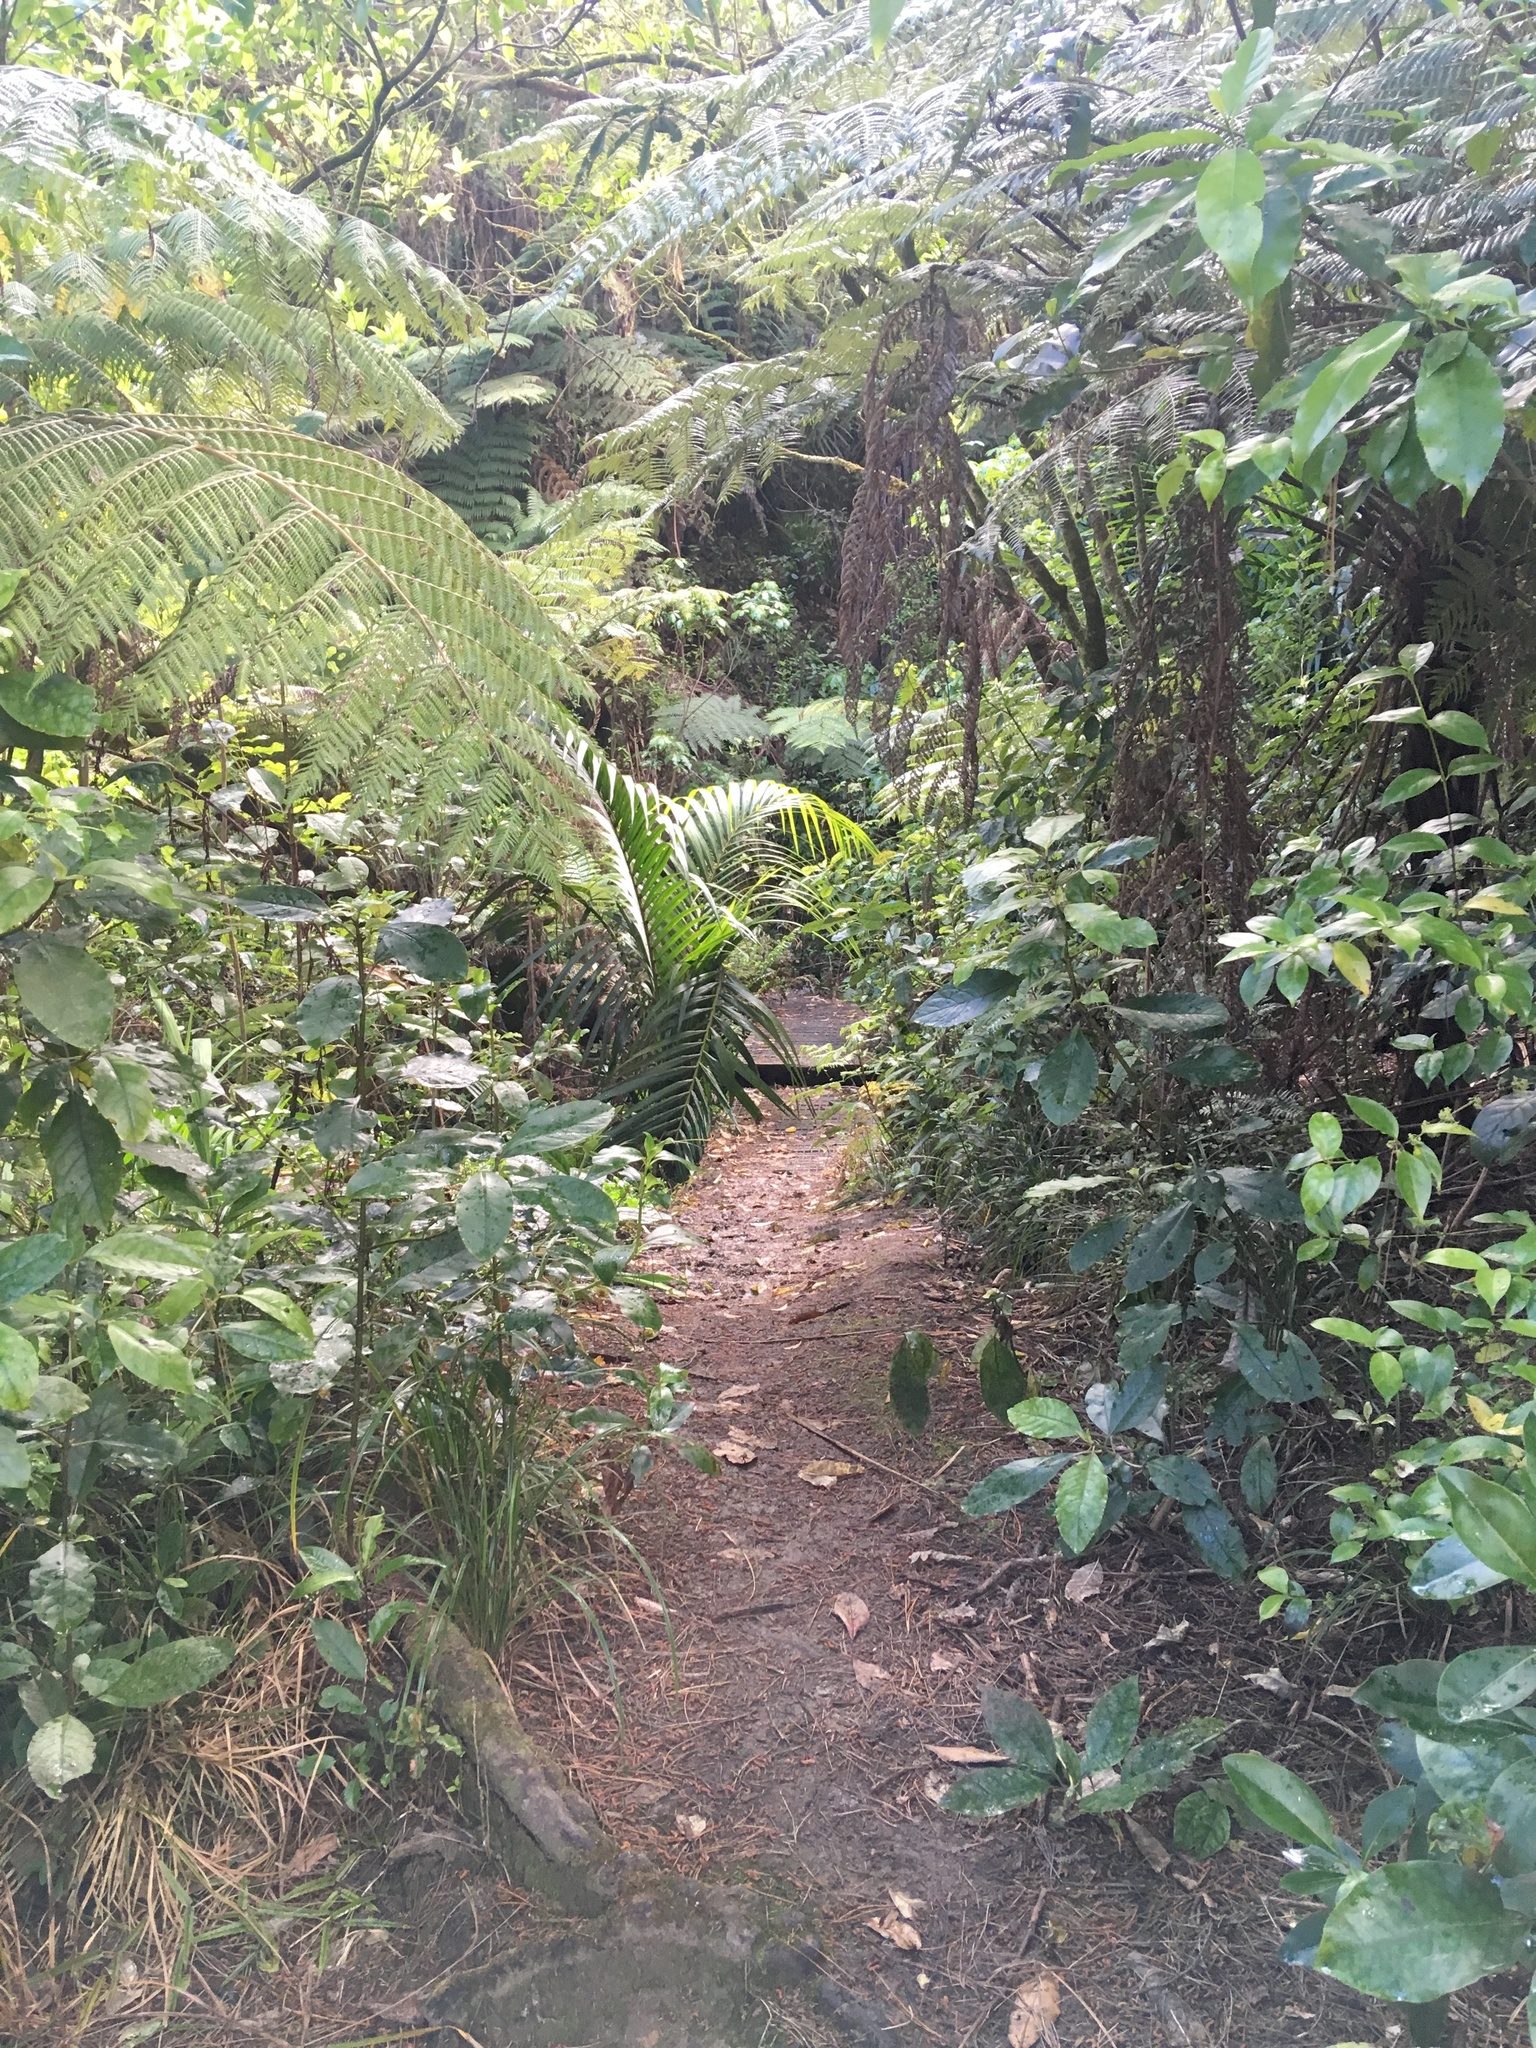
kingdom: Plantae
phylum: Tracheophyta
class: Magnoliopsida
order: Gentianales
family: Rubiaceae
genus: Coprosma
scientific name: Coprosma autumnalis
